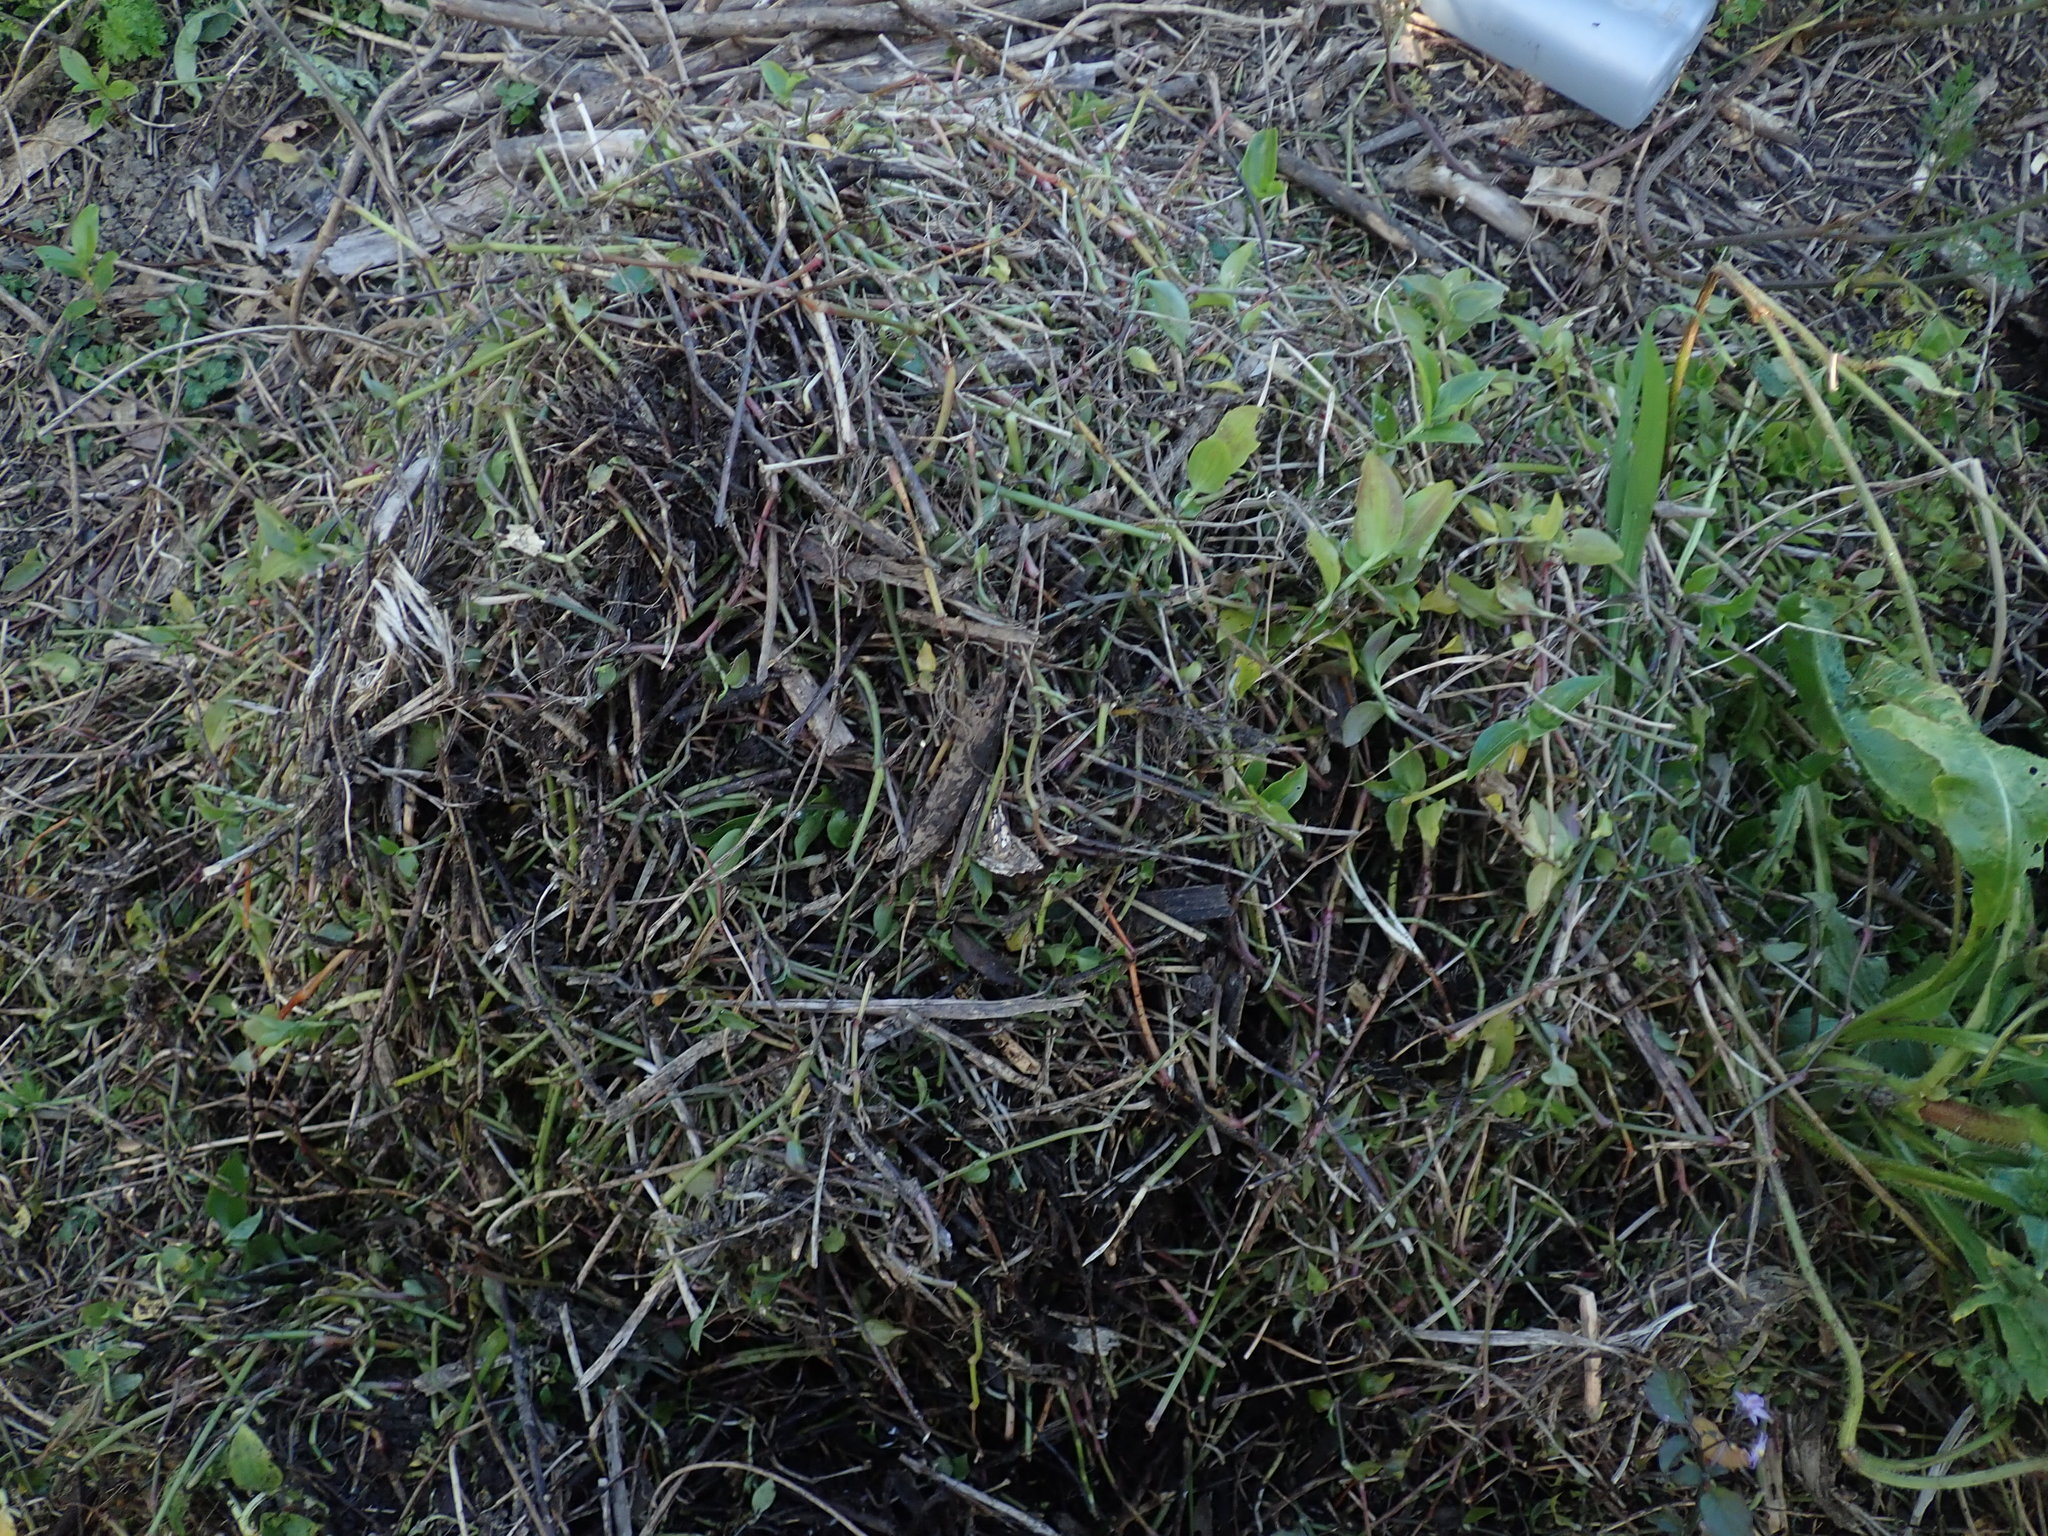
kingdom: Plantae
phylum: Tracheophyta
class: Liliopsida
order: Commelinales
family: Commelinaceae
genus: Tradescantia
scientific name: Tradescantia fluminensis
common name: Wandering-jew
